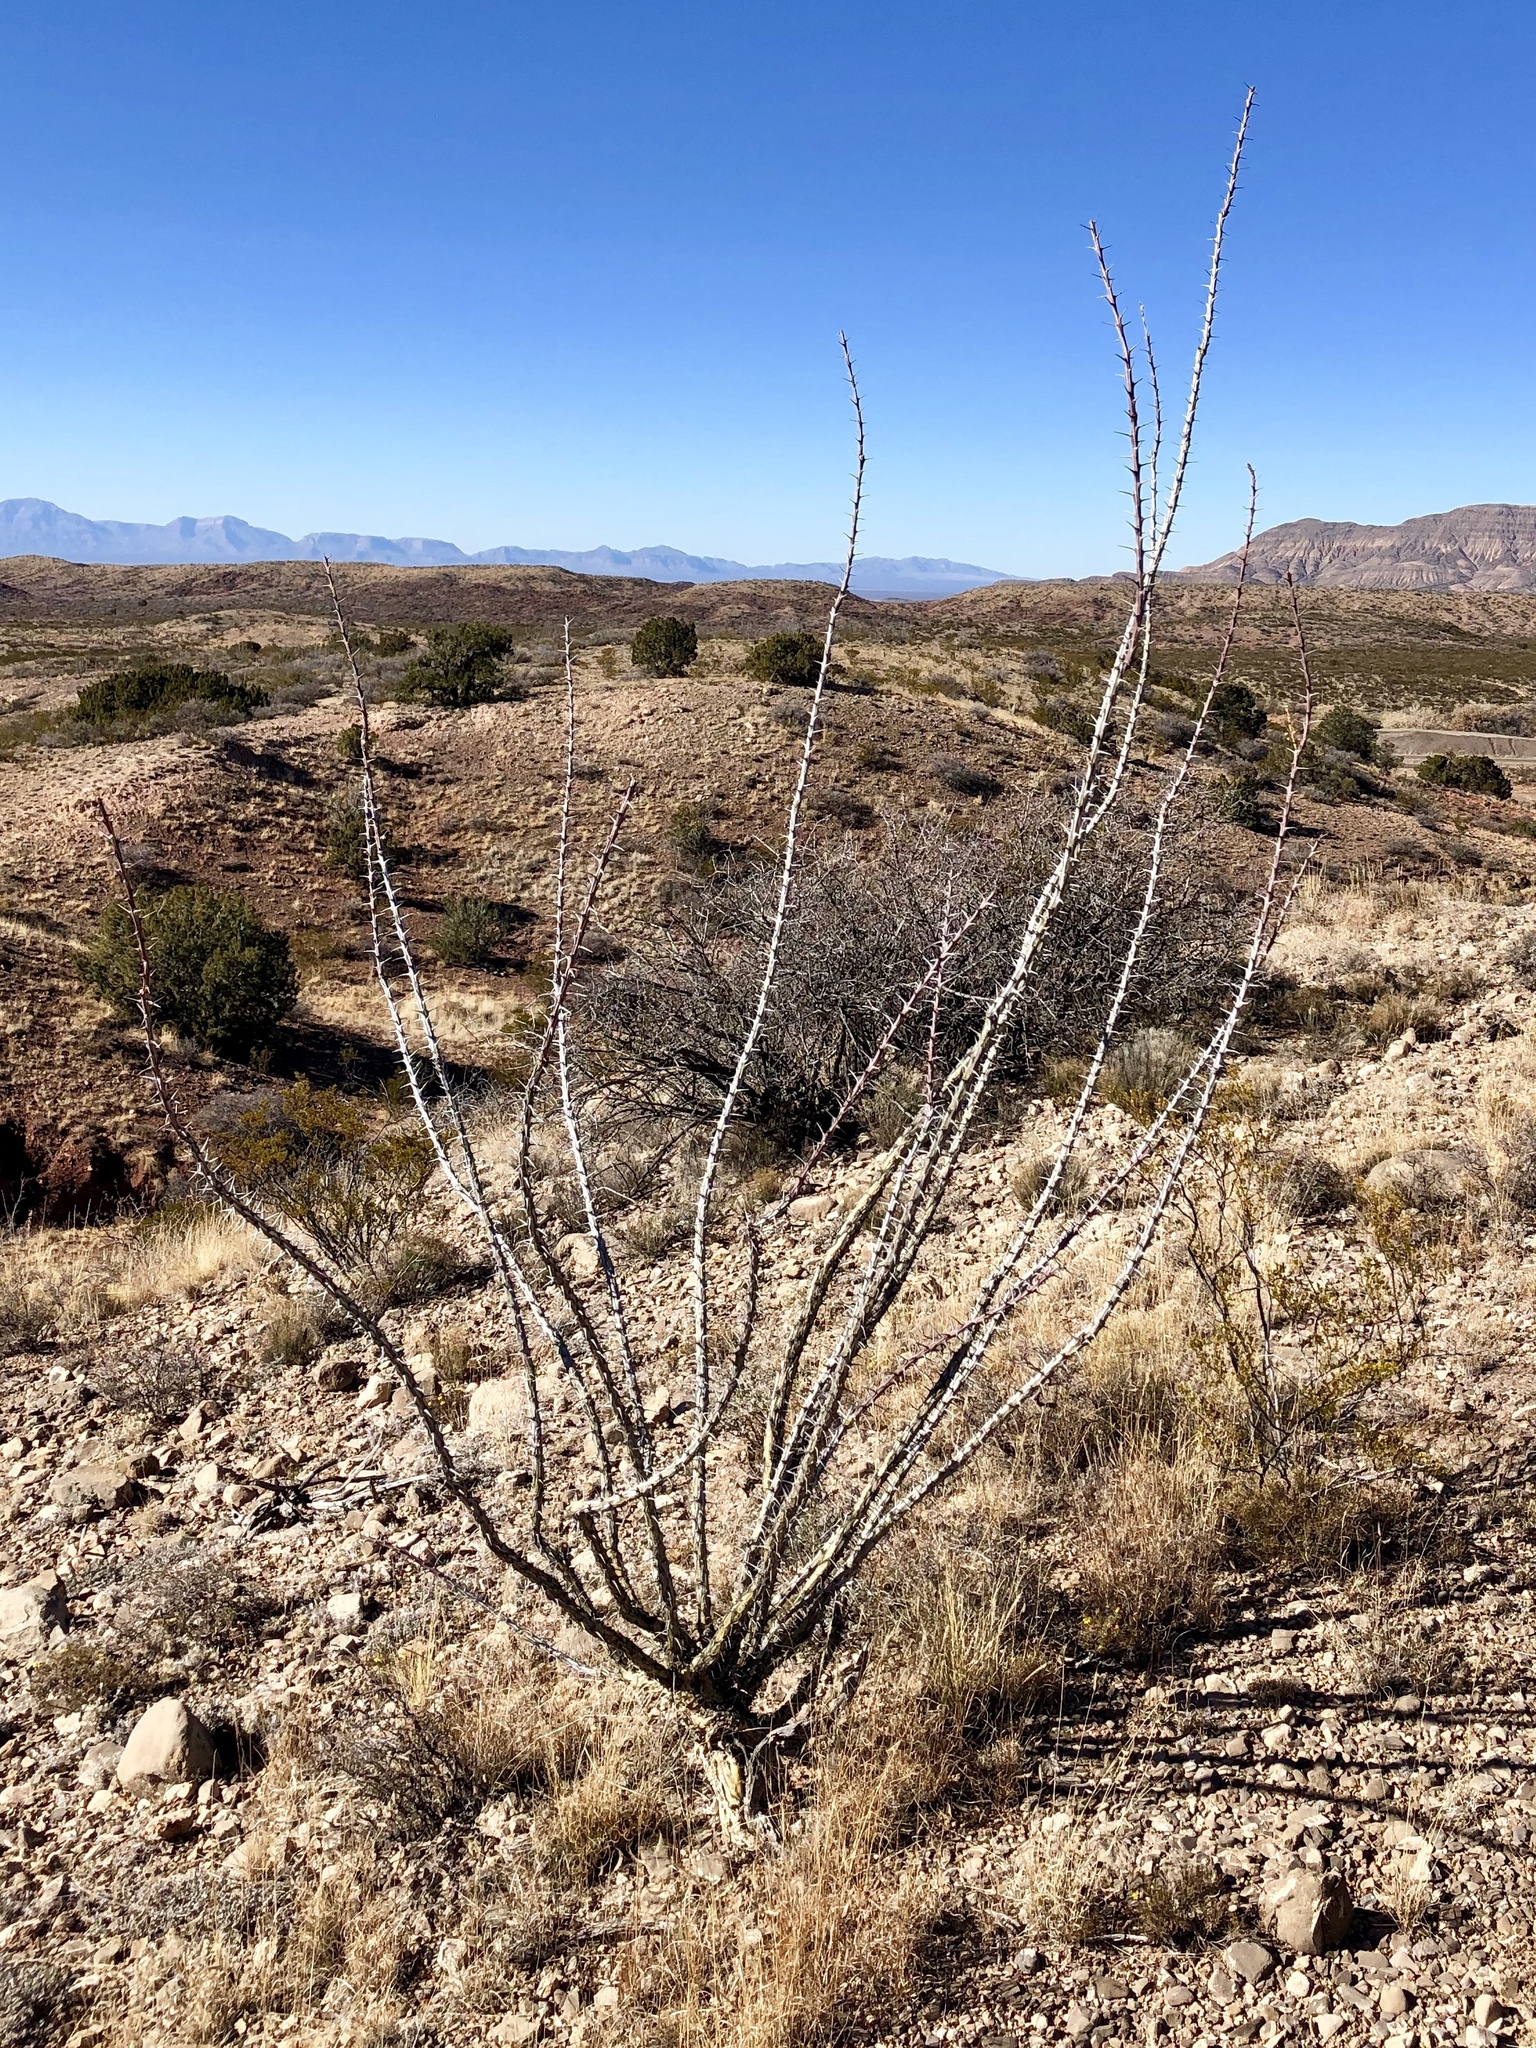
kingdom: Plantae
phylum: Tracheophyta
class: Magnoliopsida
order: Ericales
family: Fouquieriaceae
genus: Fouquieria
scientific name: Fouquieria splendens
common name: Vine-cactus
